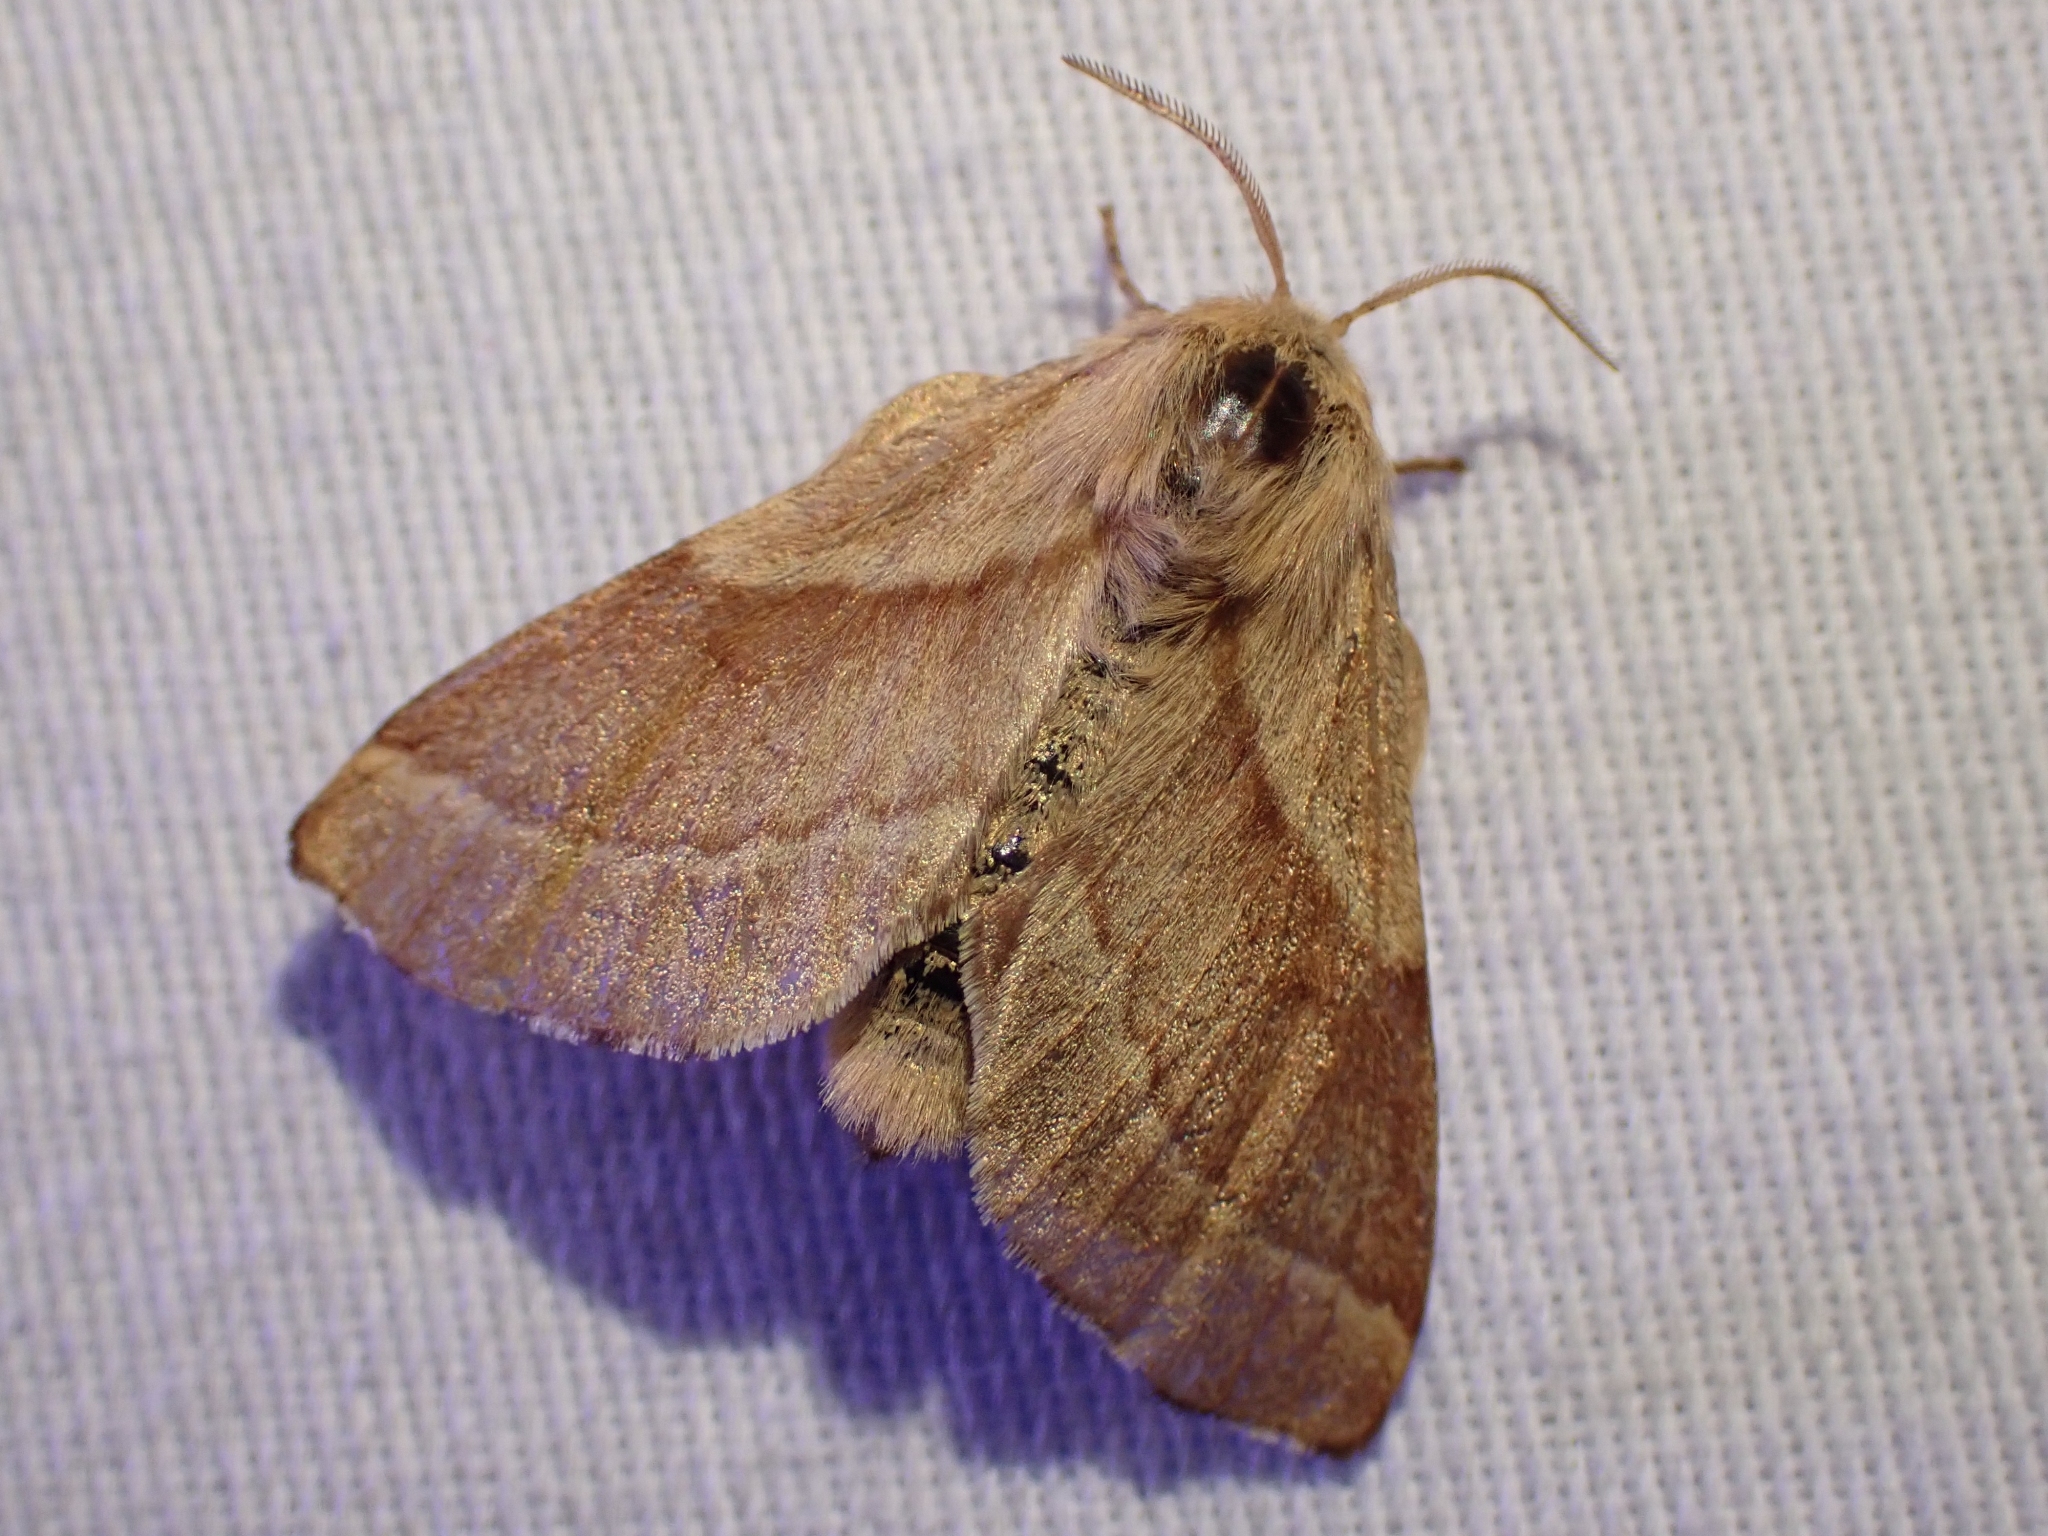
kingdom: Animalia
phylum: Arthropoda
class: Insecta
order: Lepidoptera
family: Lasiocampidae
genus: Malacosoma
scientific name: Malacosoma disstria
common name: Forest tent caterpillar
